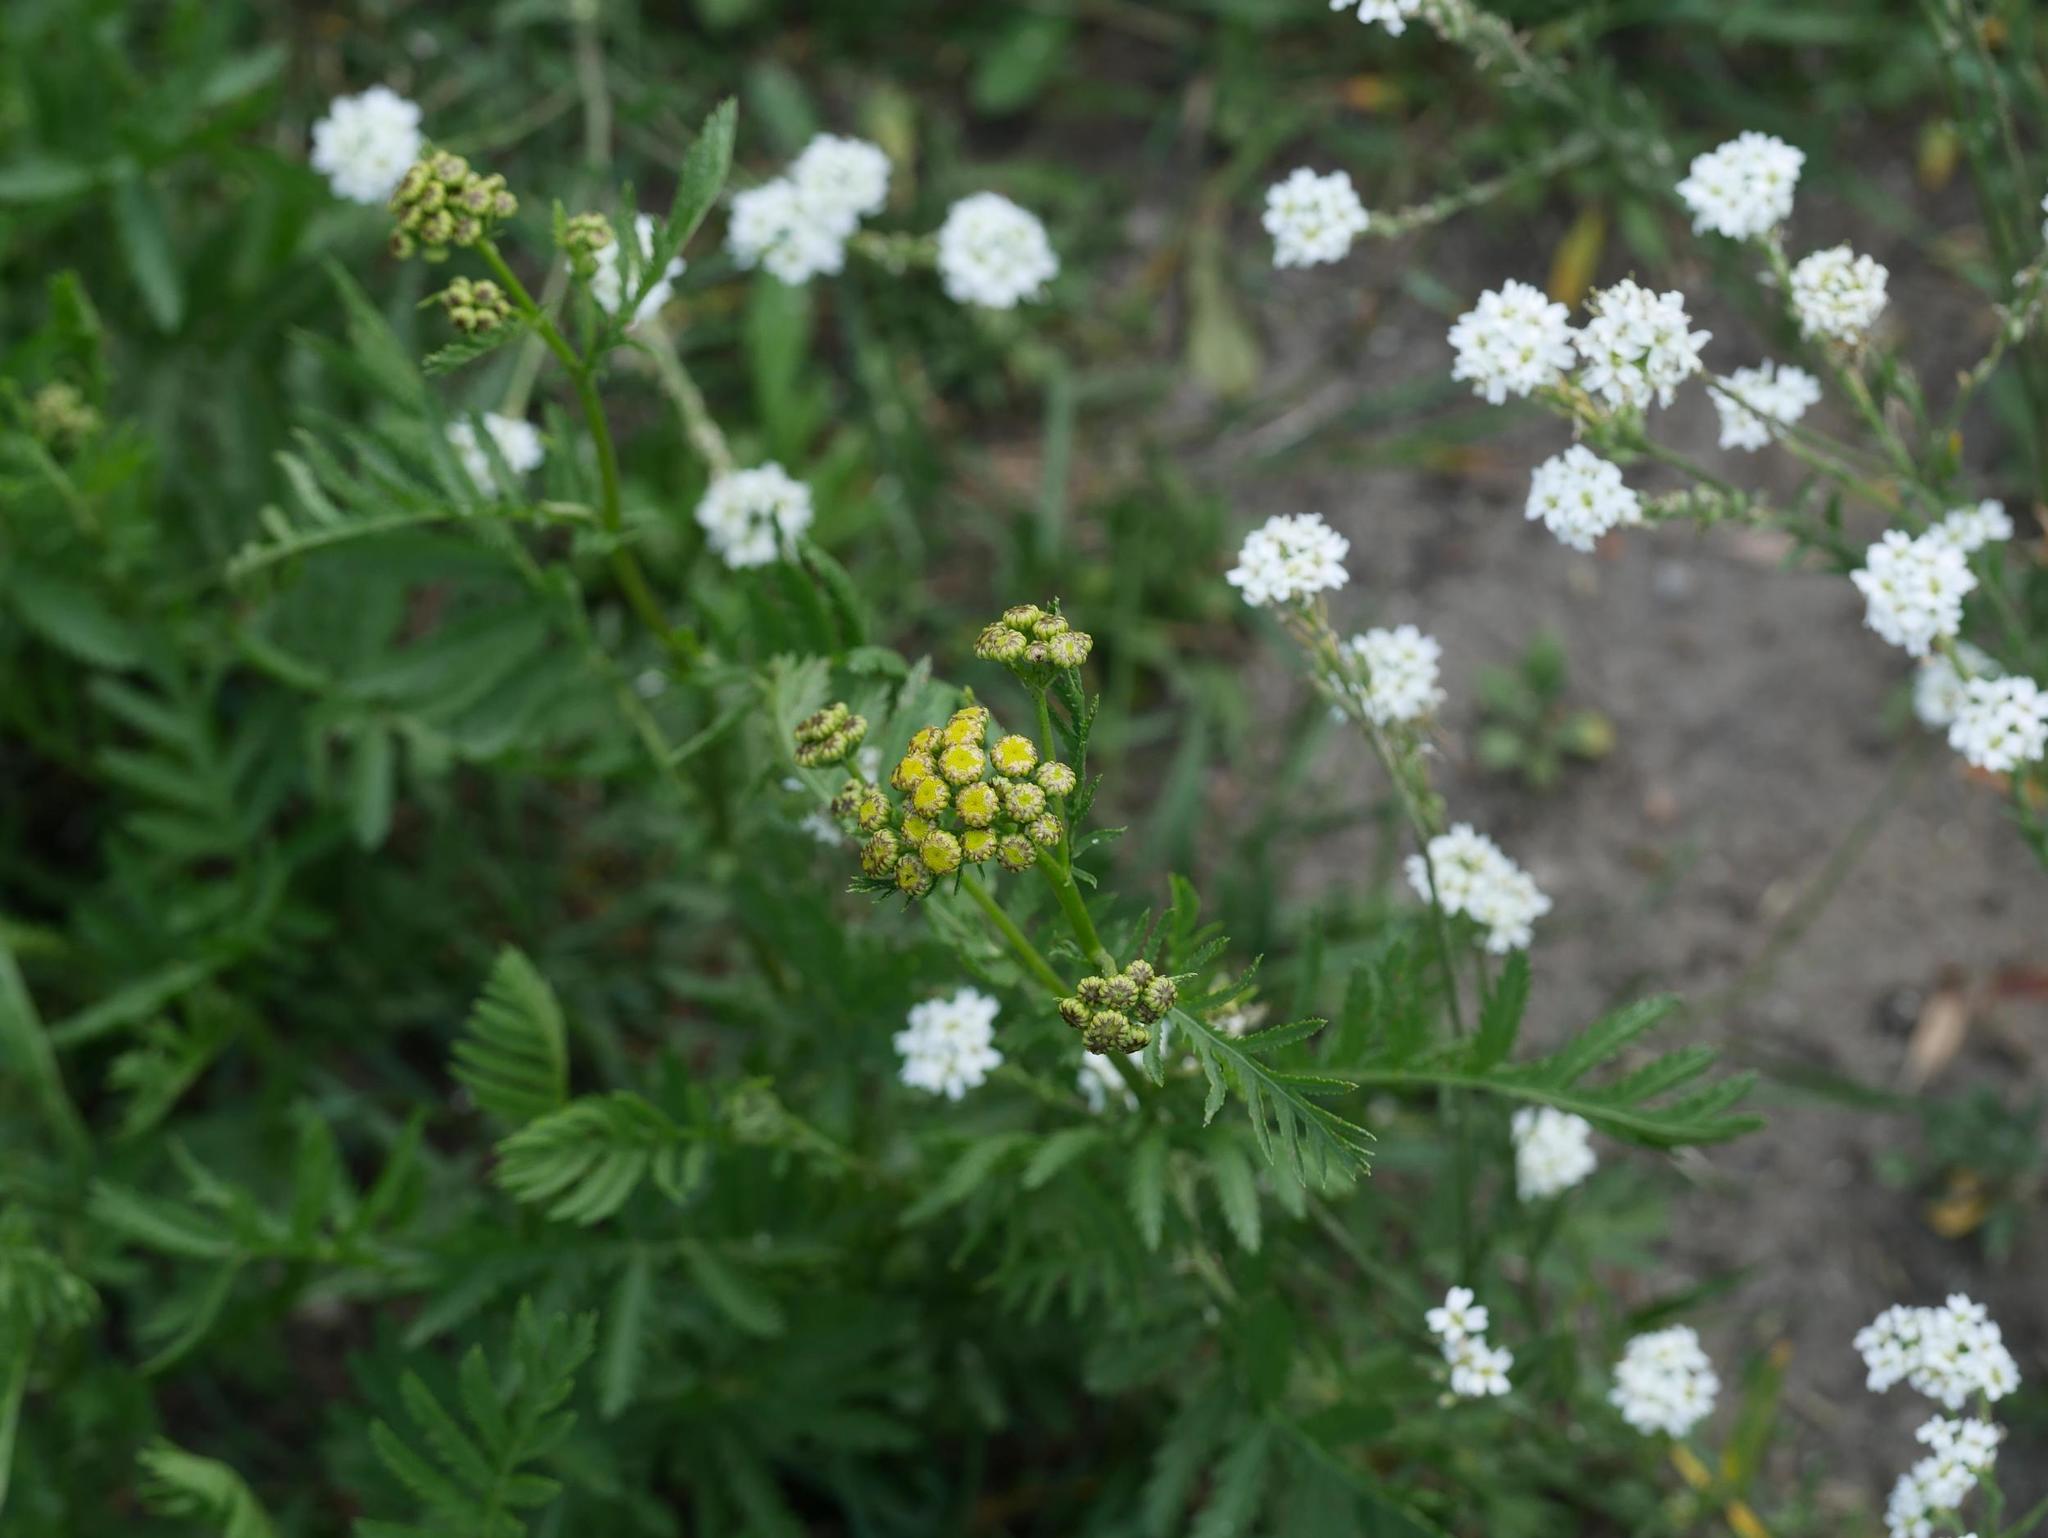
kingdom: Plantae
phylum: Tracheophyta
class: Magnoliopsida
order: Asterales
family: Asteraceae
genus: Tanacetum
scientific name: Tanacetum vulgare
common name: Common tansy
